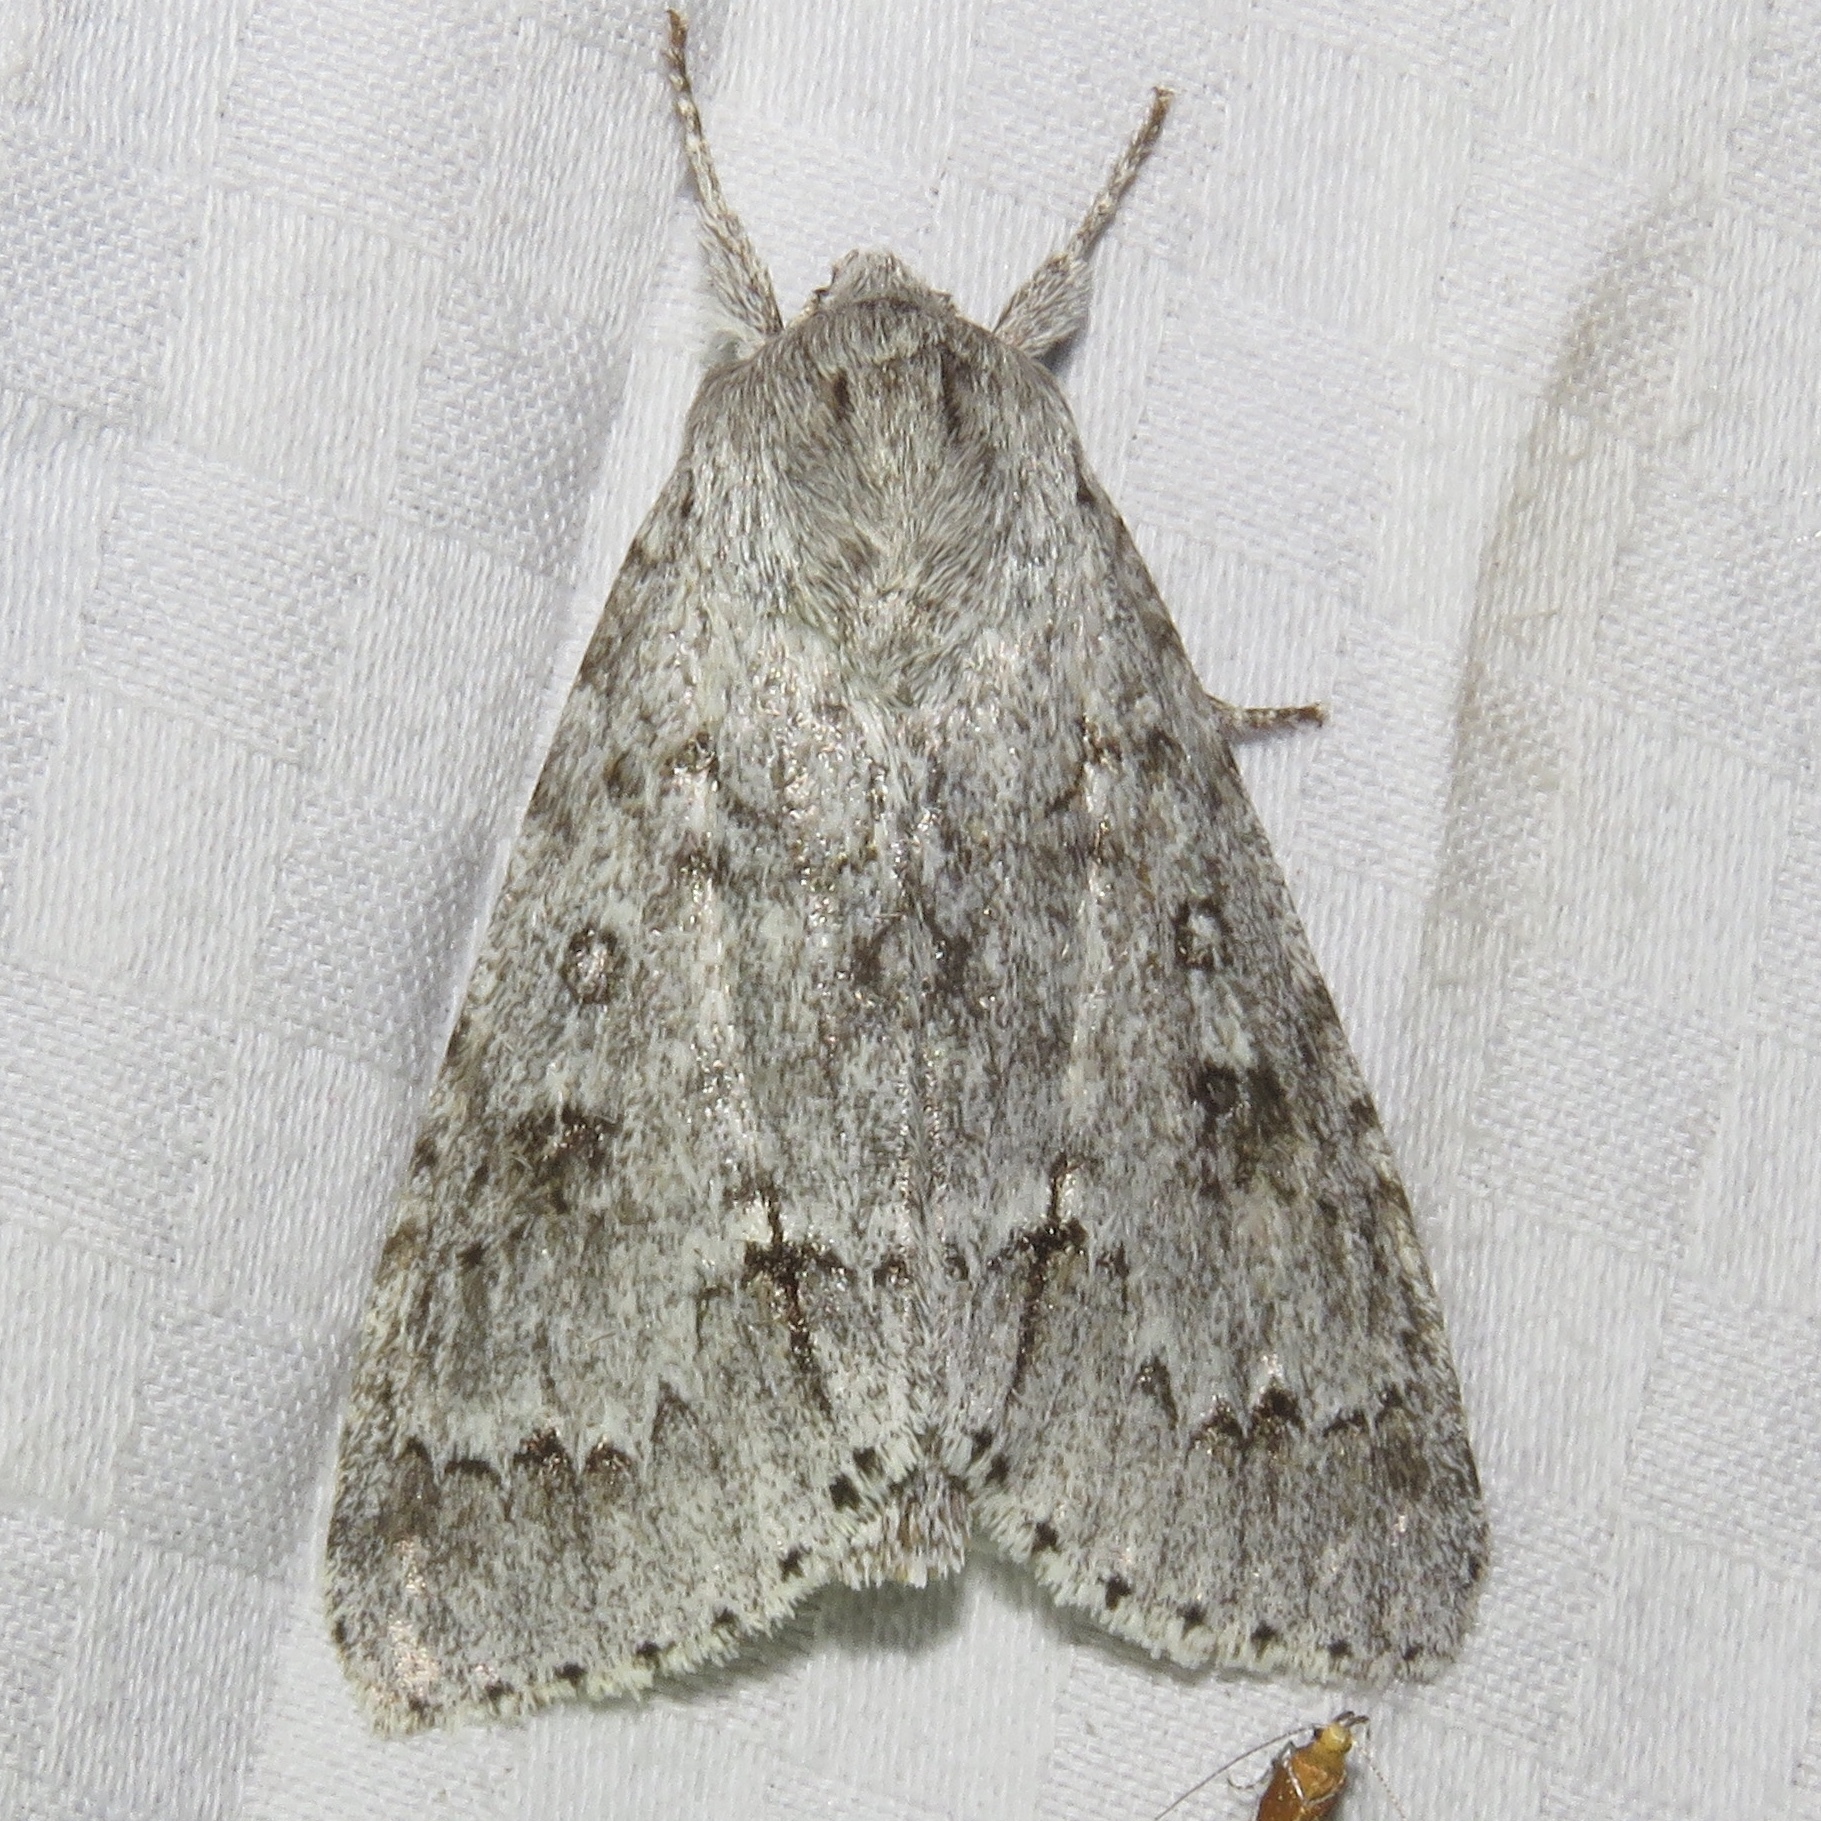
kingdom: Animalia
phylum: Arthropoda
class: Insecta
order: Lepidoptera
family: Noctuidae
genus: Acronicta
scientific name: Acronicta insita
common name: Large gray dagger
